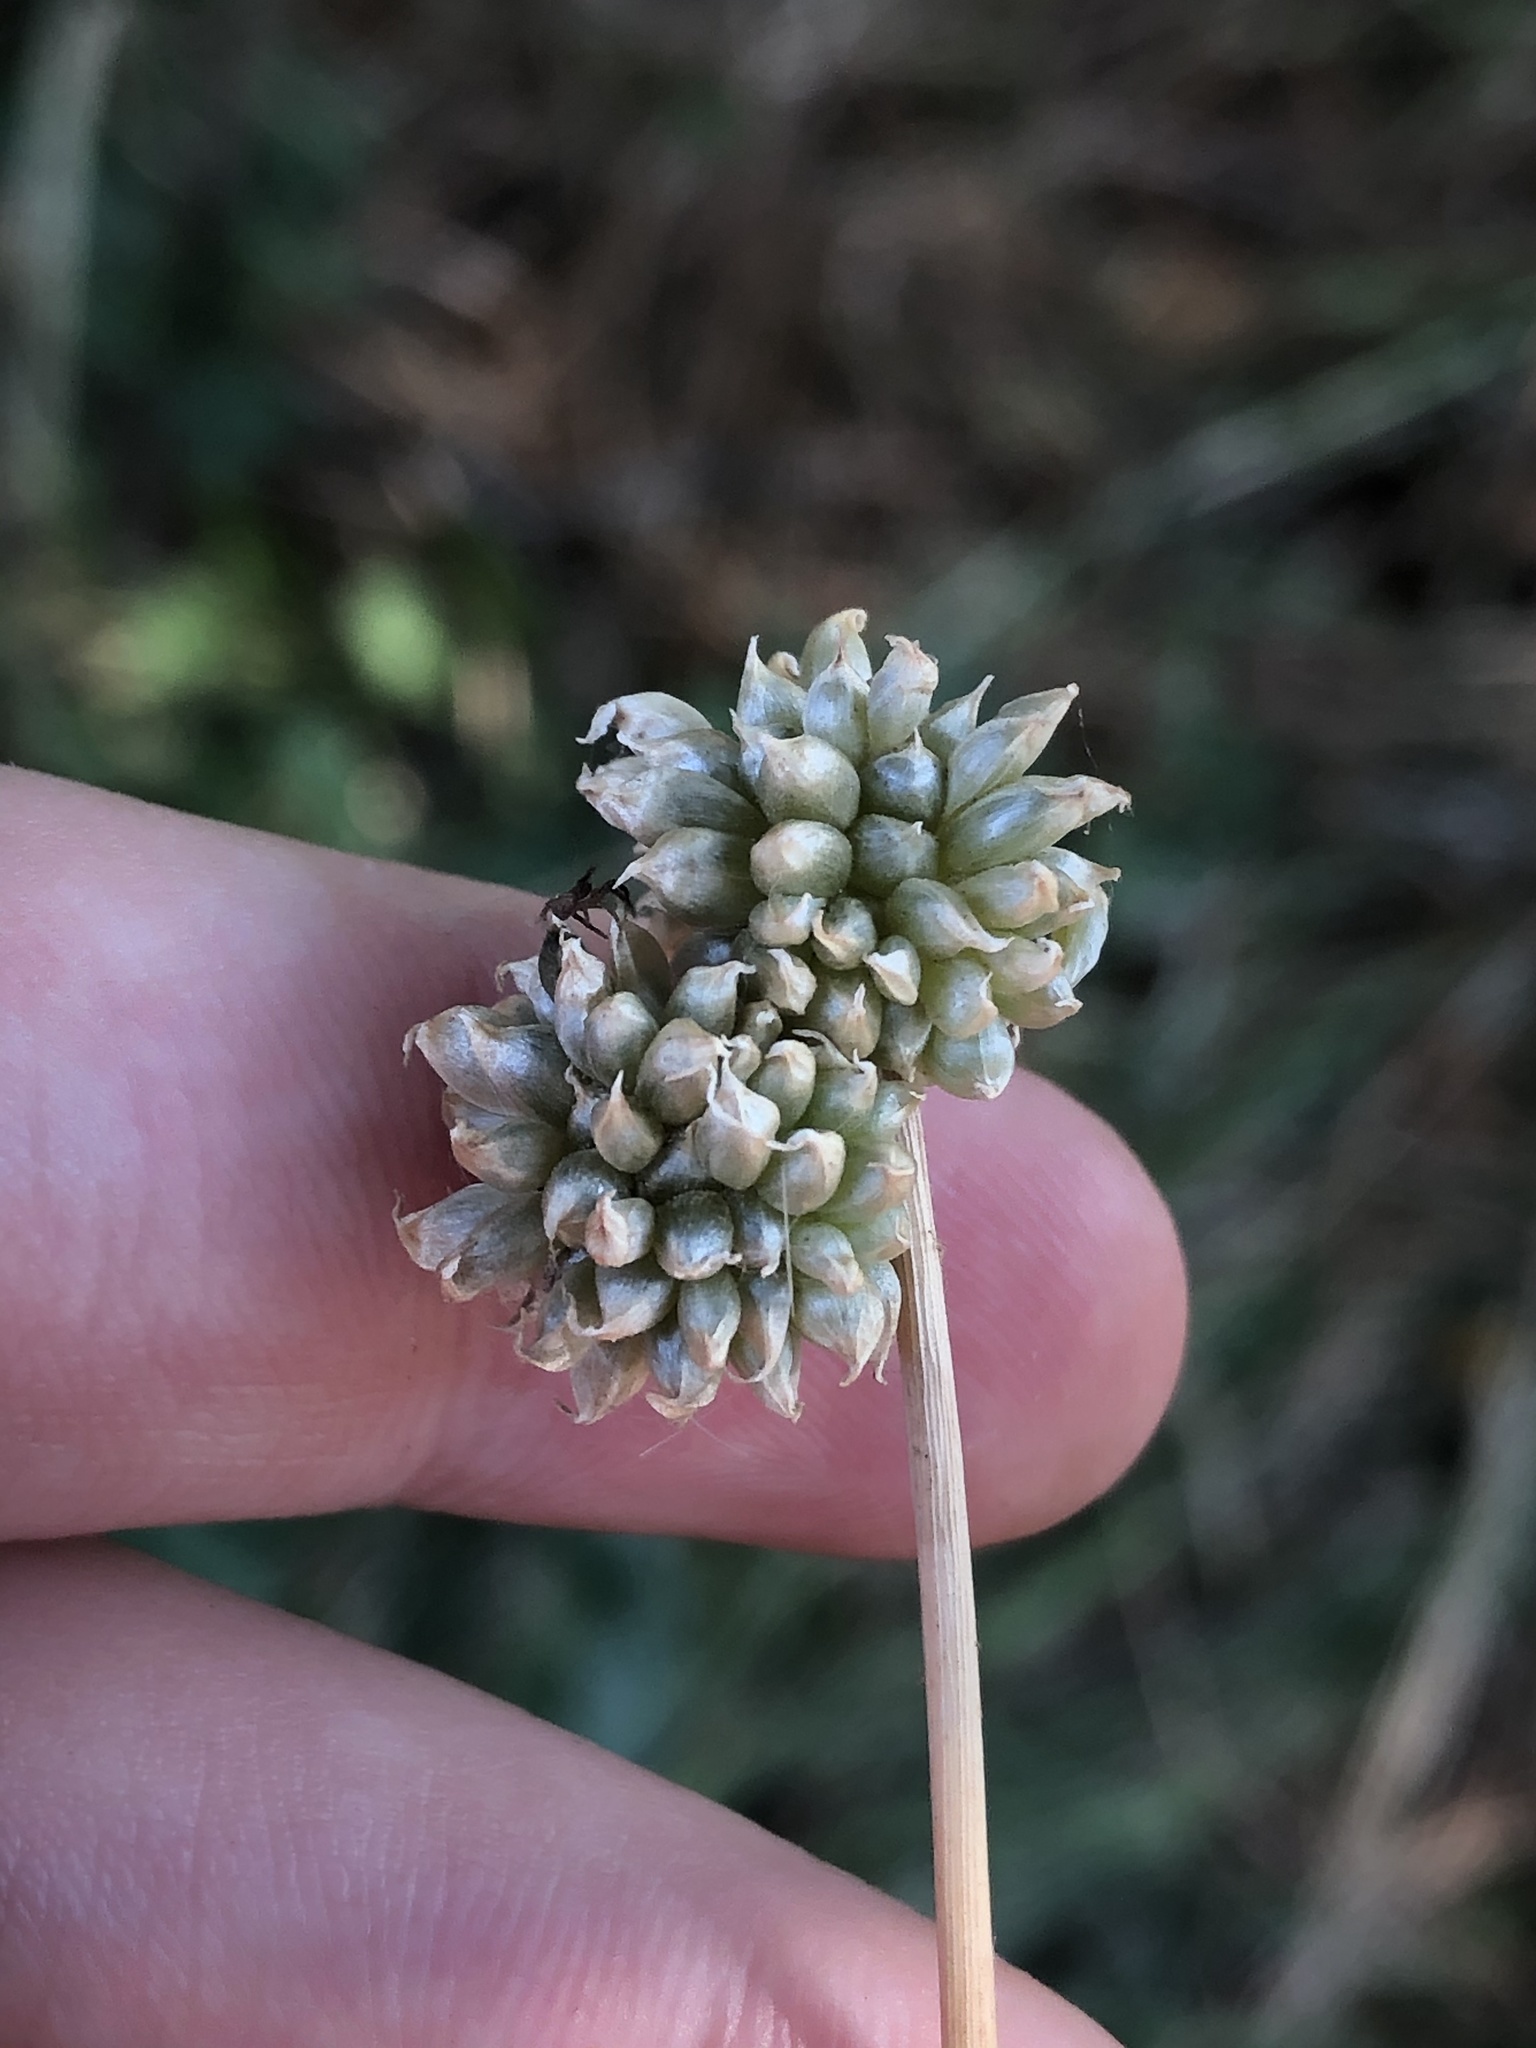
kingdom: Plantae
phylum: Tracheophyta
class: Liliopsida
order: Asparagales
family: Amaryllidaceae
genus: Allium
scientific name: Allium vineale
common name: Crow garlic
